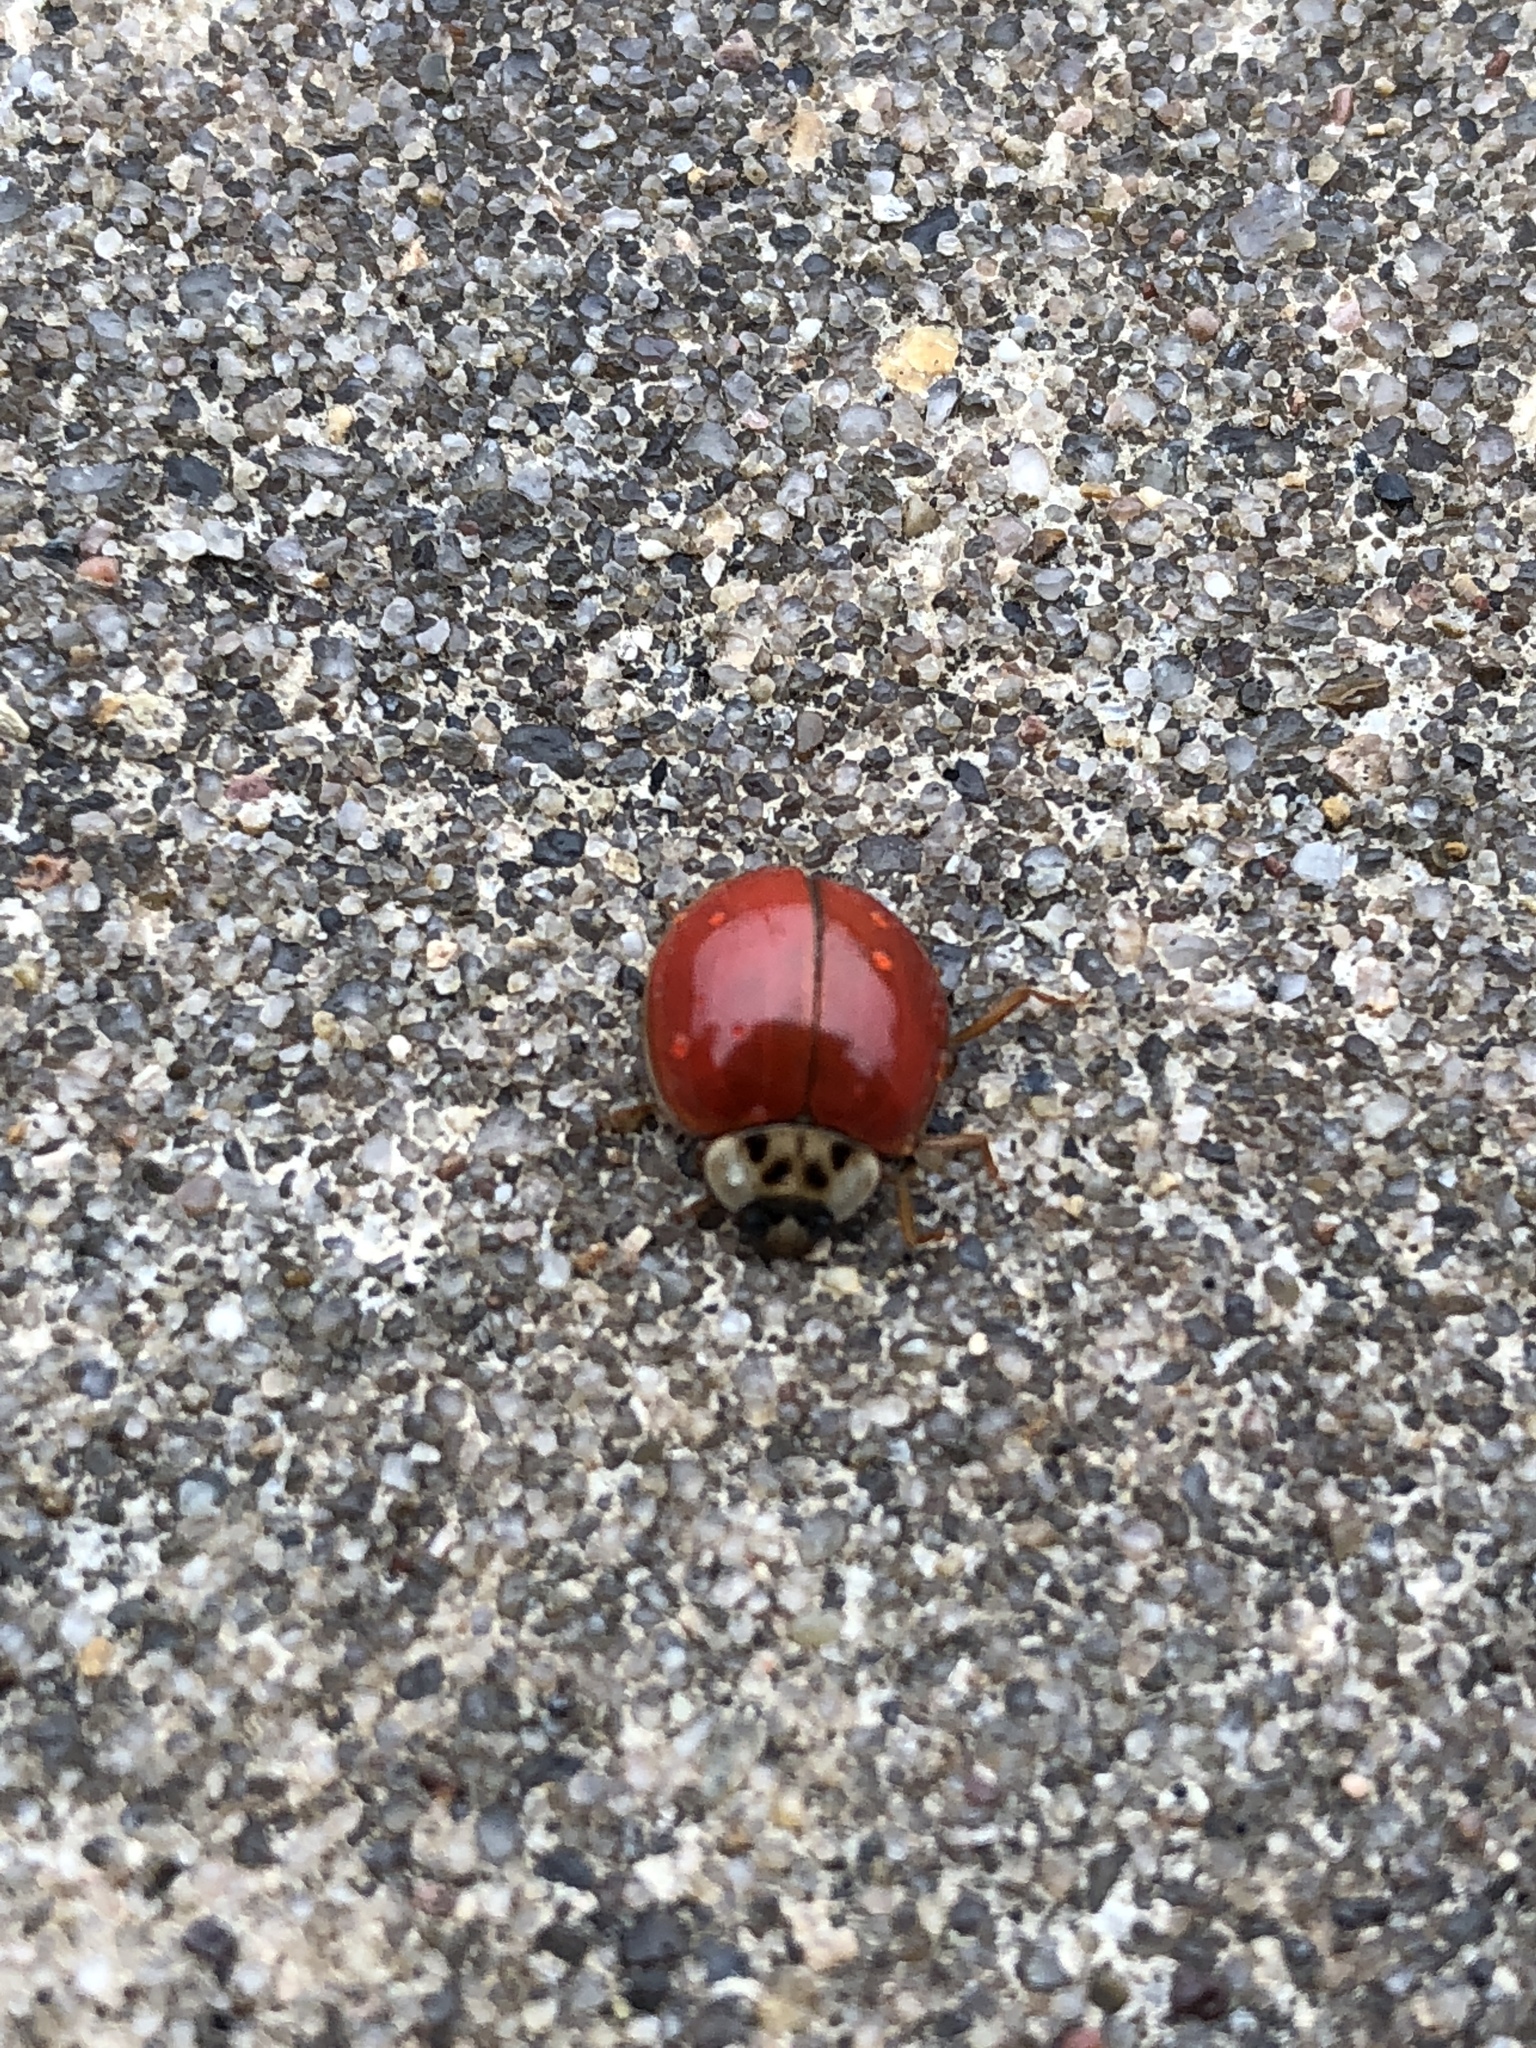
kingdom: Animalia
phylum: Arthropoda
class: Insecta
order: Coleoptera
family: Coccinellidae
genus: Harmonia
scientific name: Harmonia axyridis
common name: Harlequin ladybird
